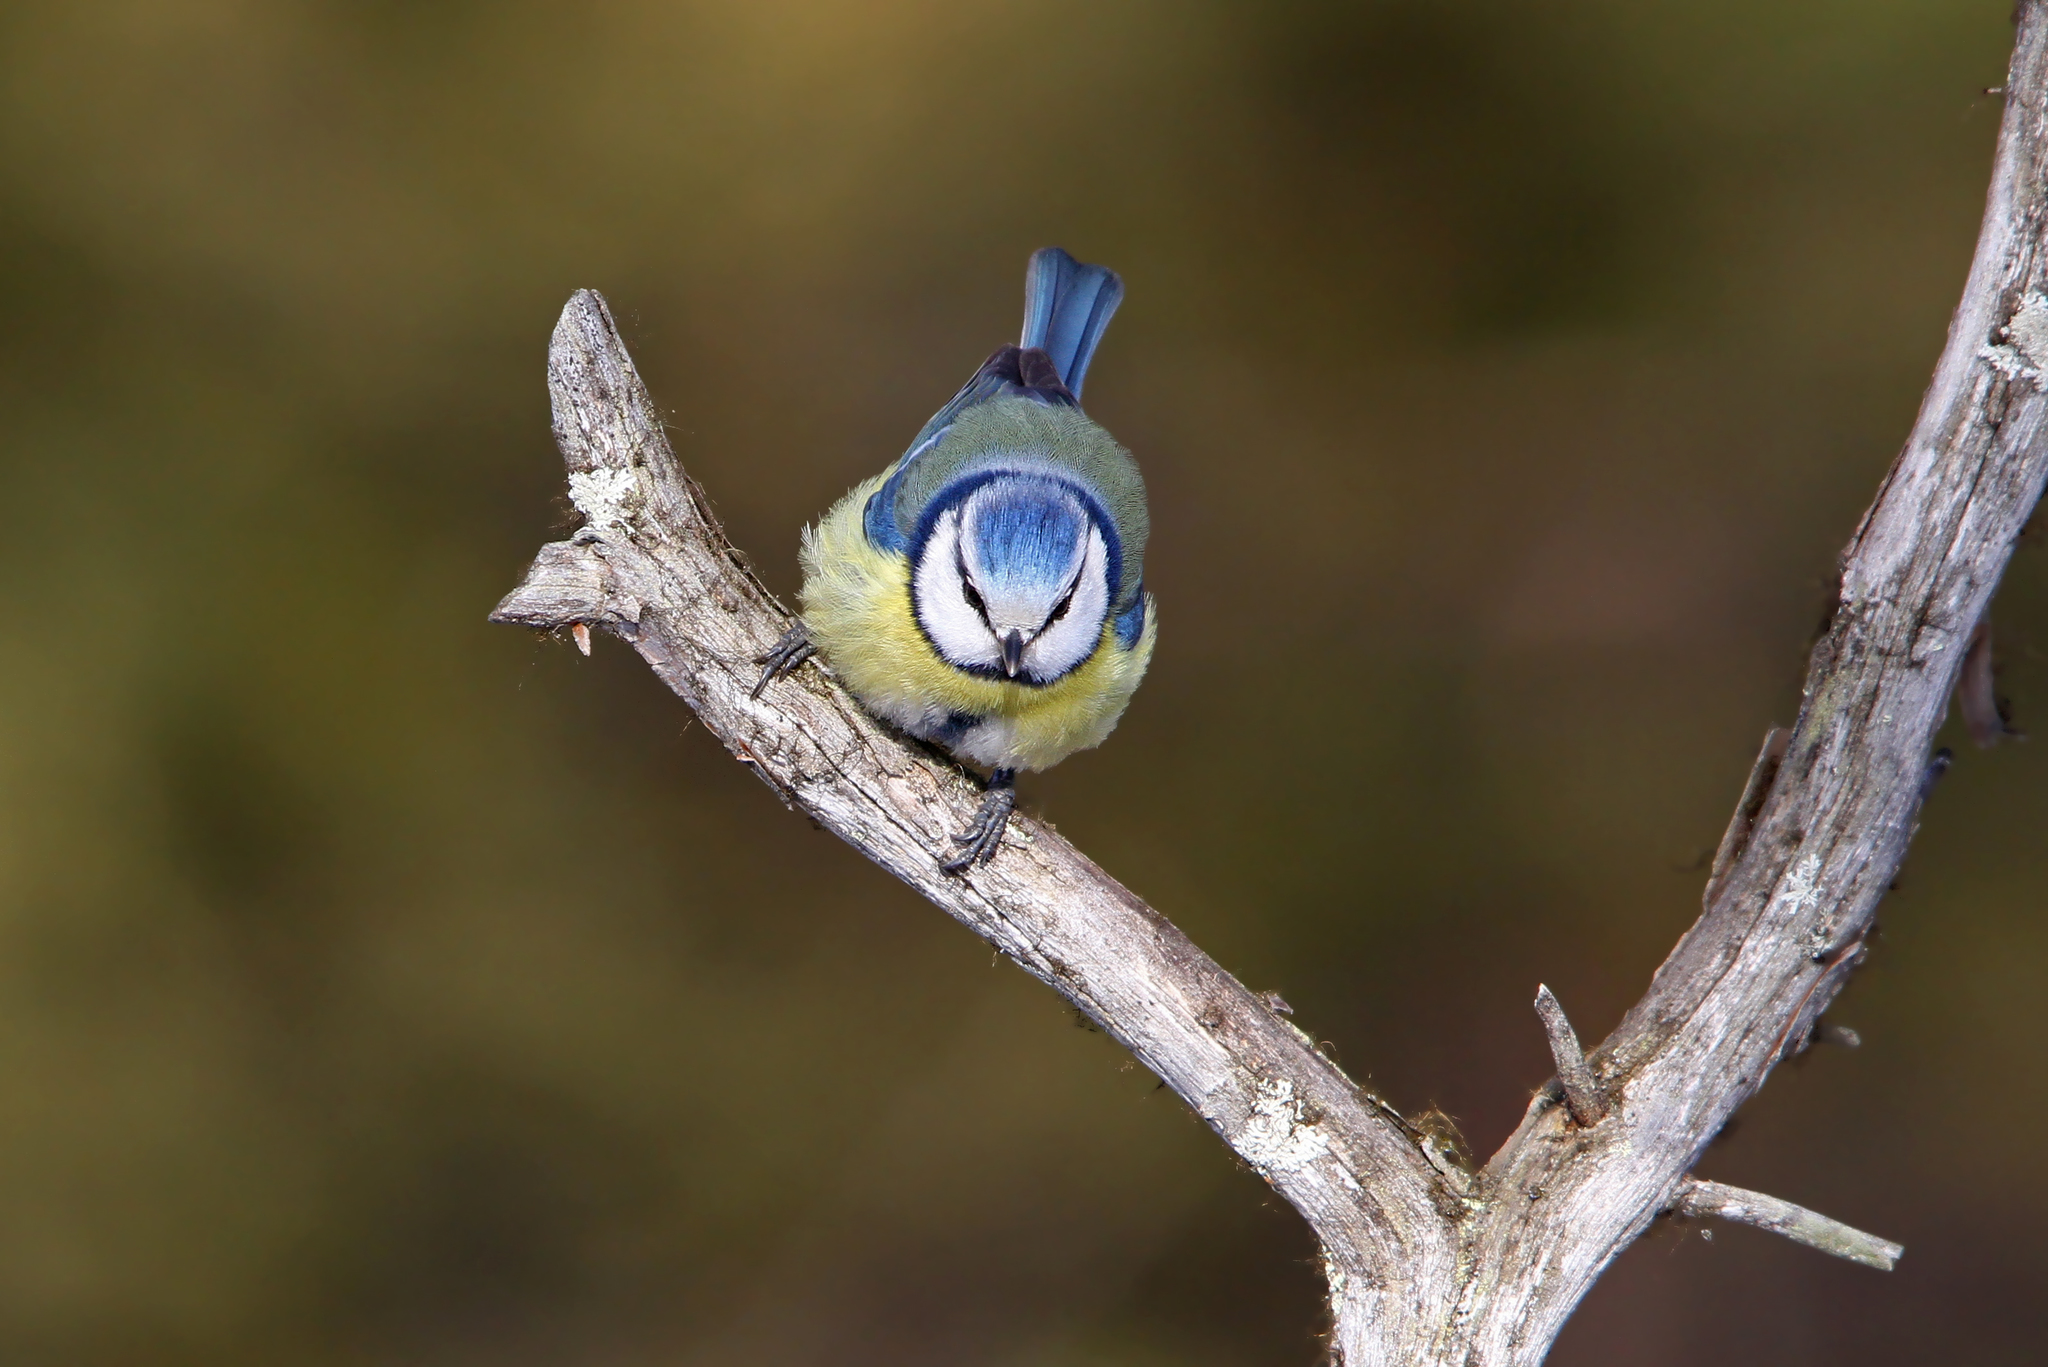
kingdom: Animalia
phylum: Chordata
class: Aves
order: Passeriformes
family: Paridae
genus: Cyanistes
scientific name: Cyanistes caeruleus
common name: Eurasian blue tit
